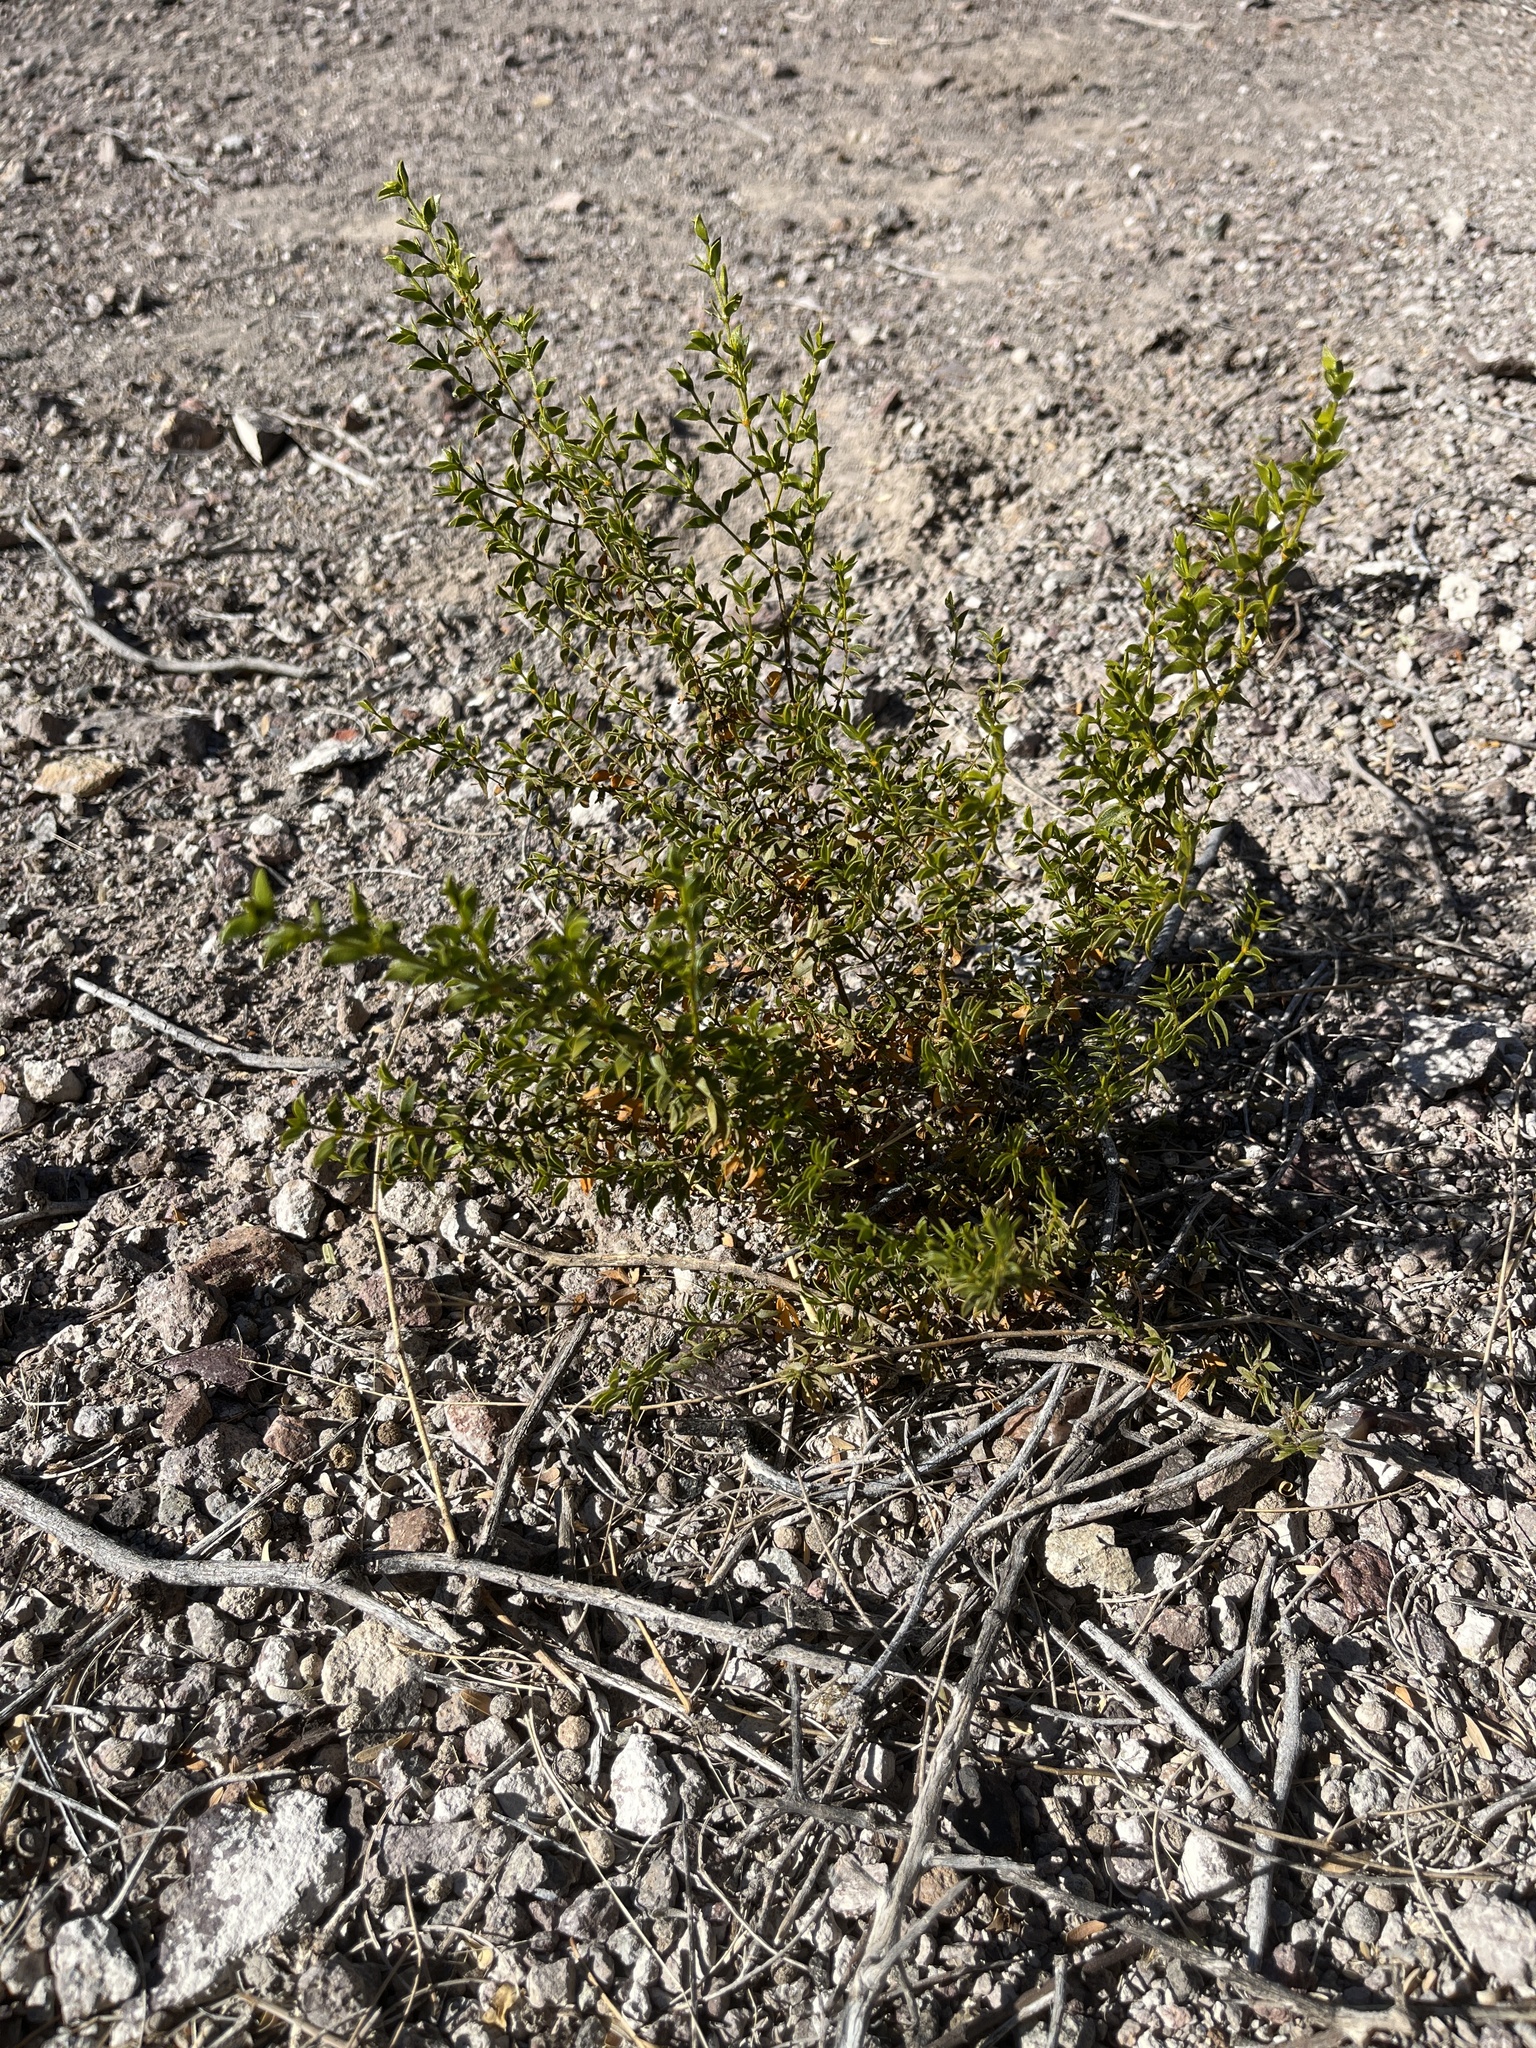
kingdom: Plantae
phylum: Tracheophyta
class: Magnoliopsida
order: Zygophyllales
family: Zygophyllaceae
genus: Larrea
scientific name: Larrea tridentata
